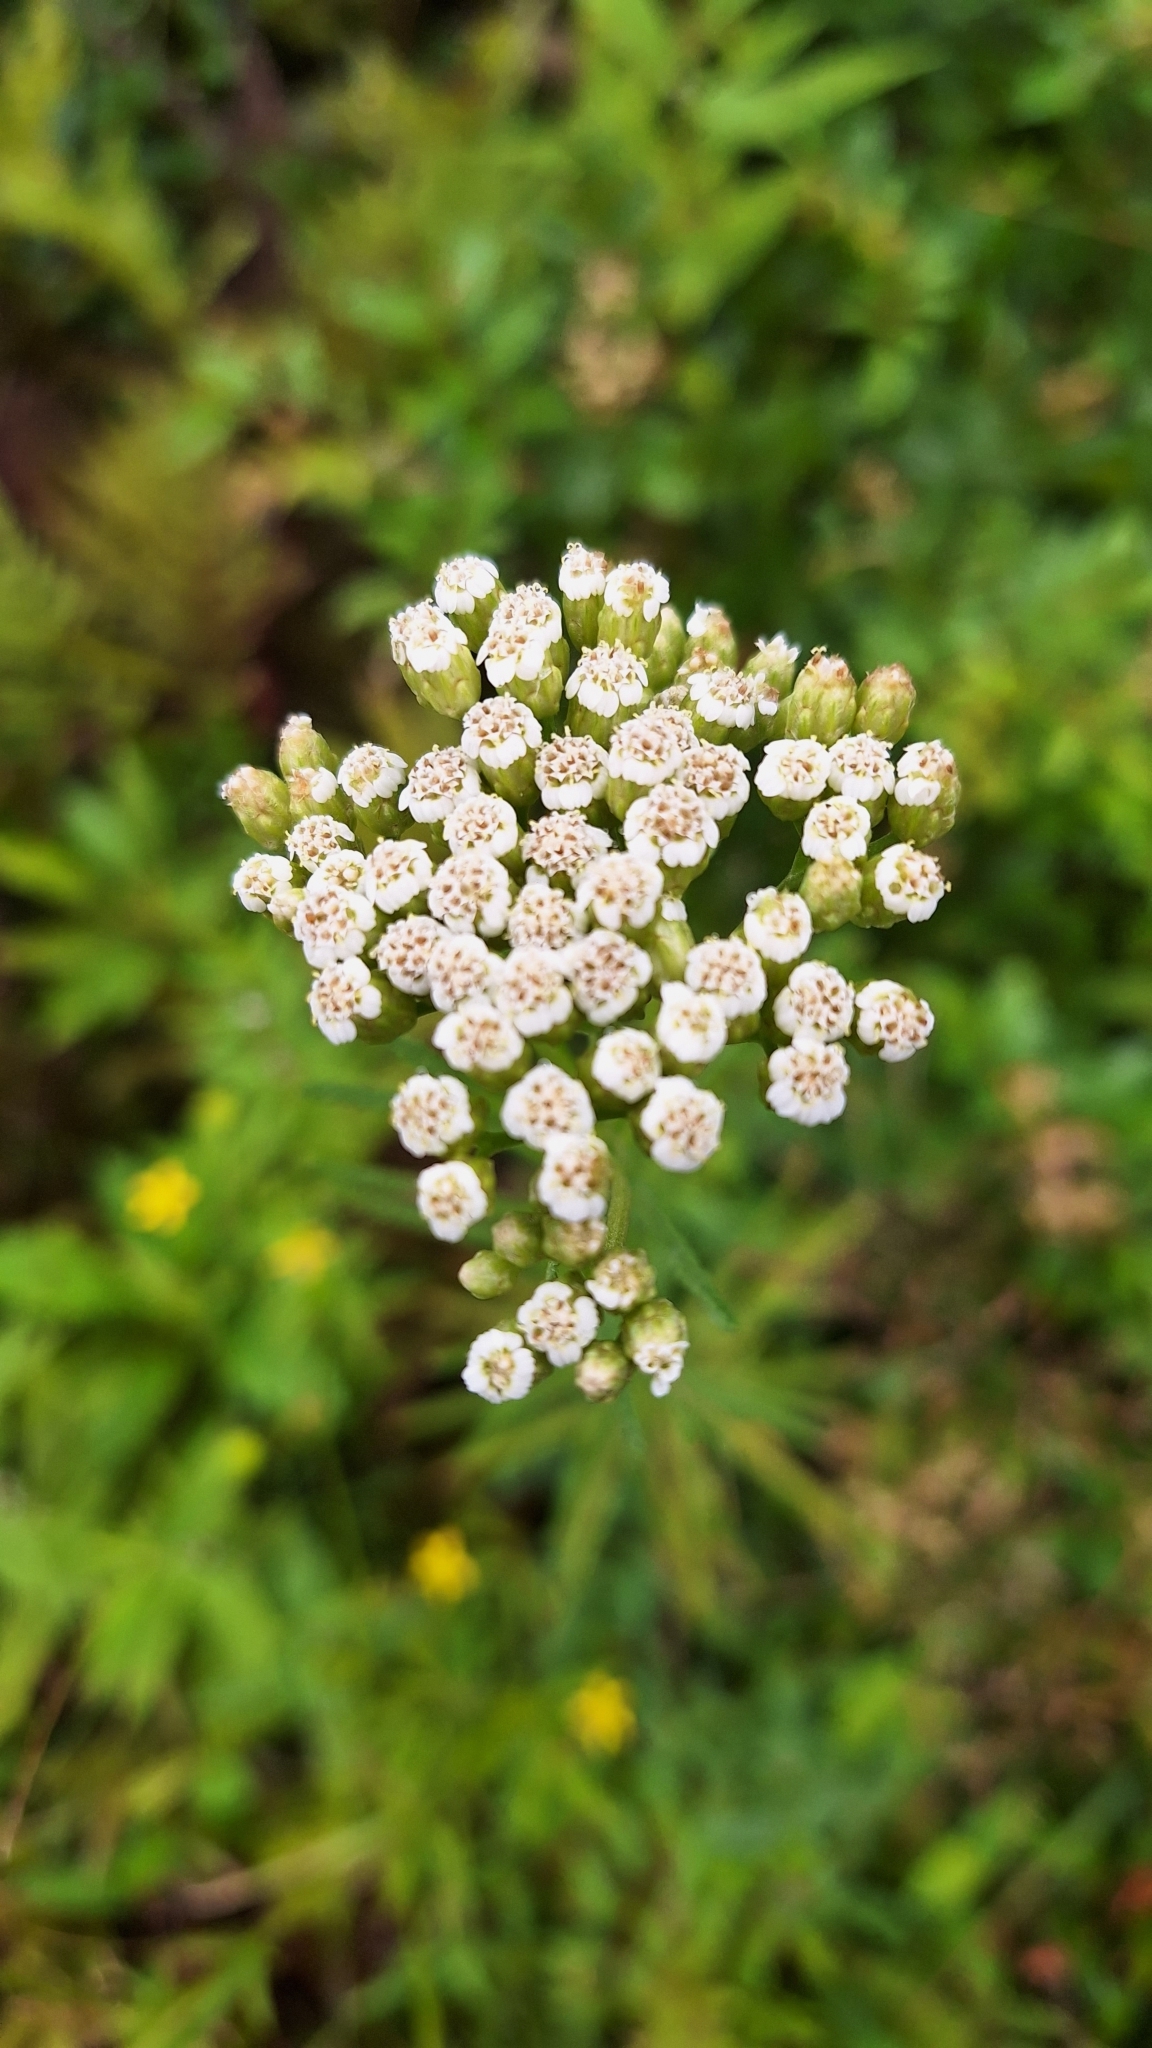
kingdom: Plantae
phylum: Tracheophyta
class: Magnoliopsida
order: Asterales
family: Asteraceae
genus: Achillea
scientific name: Achillea ptarmicoides
